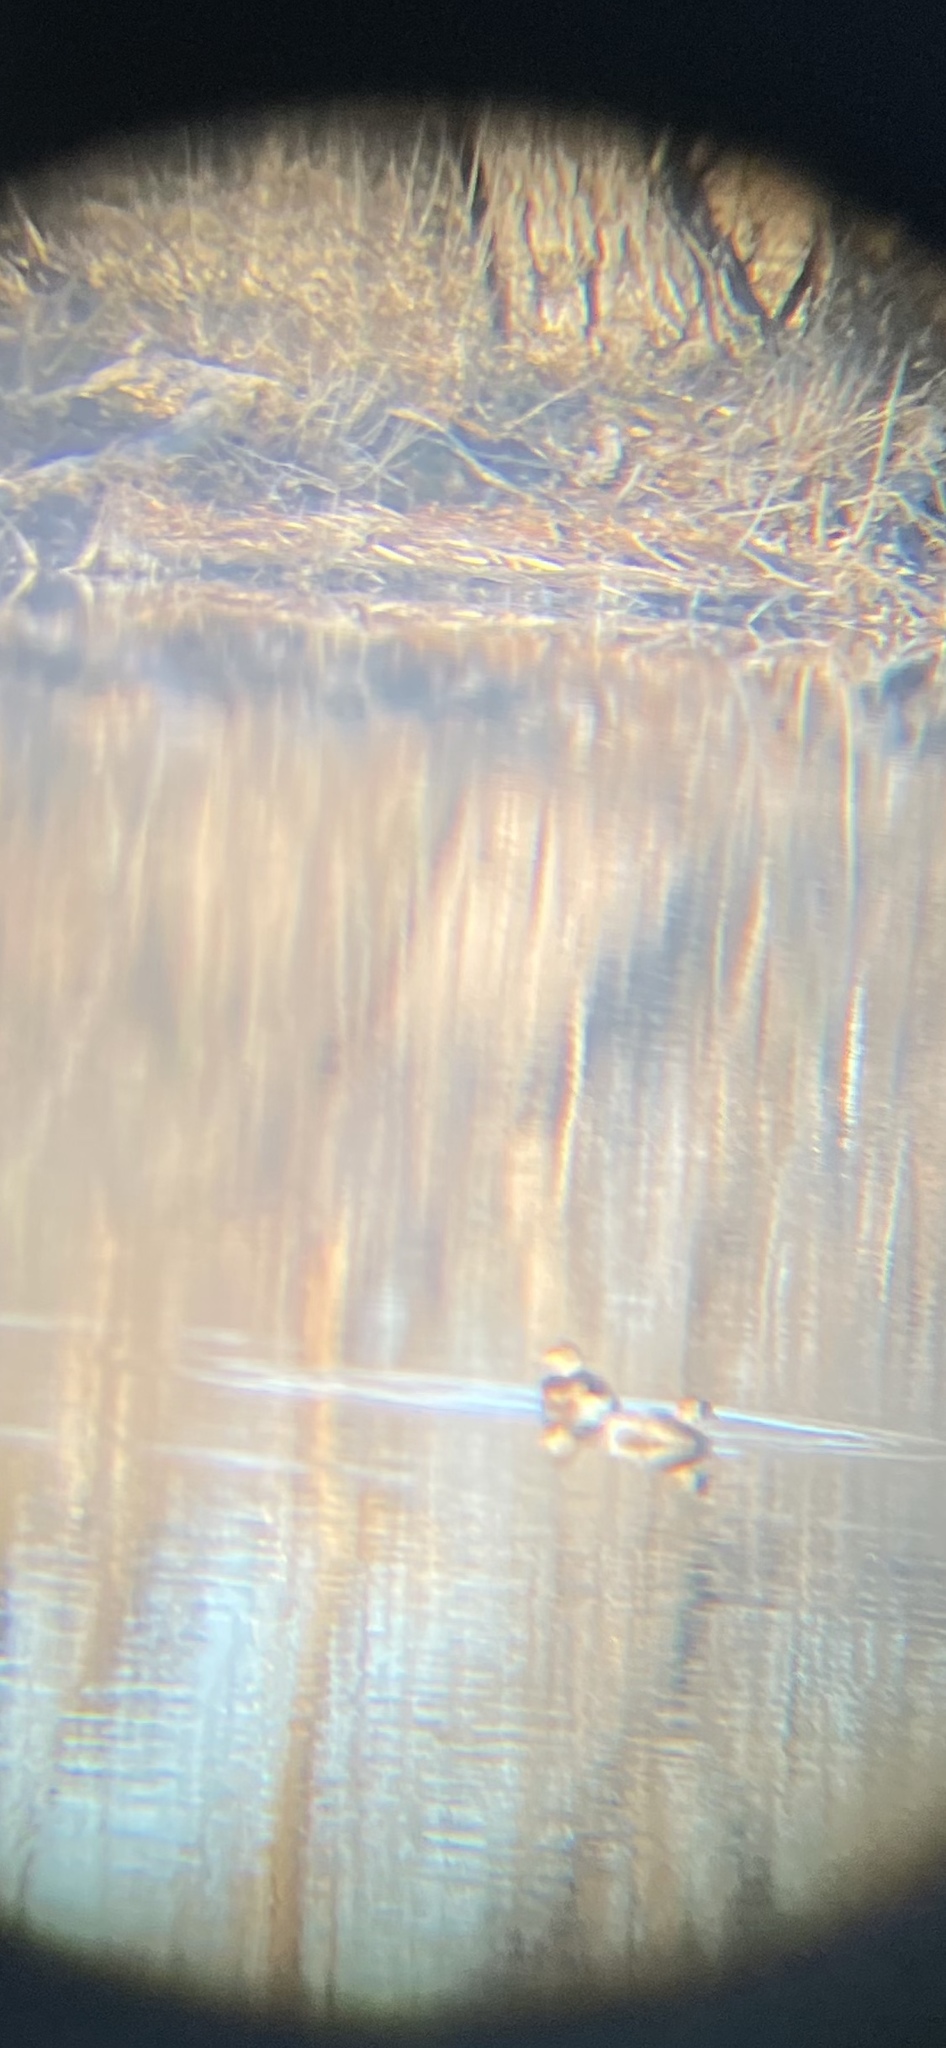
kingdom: Animalia
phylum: Chordata
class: Aves
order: Podicipediformes
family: Podicipedidae
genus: Podilymbus
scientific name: Podilymbus podiceps
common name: Pied-billed grebe
